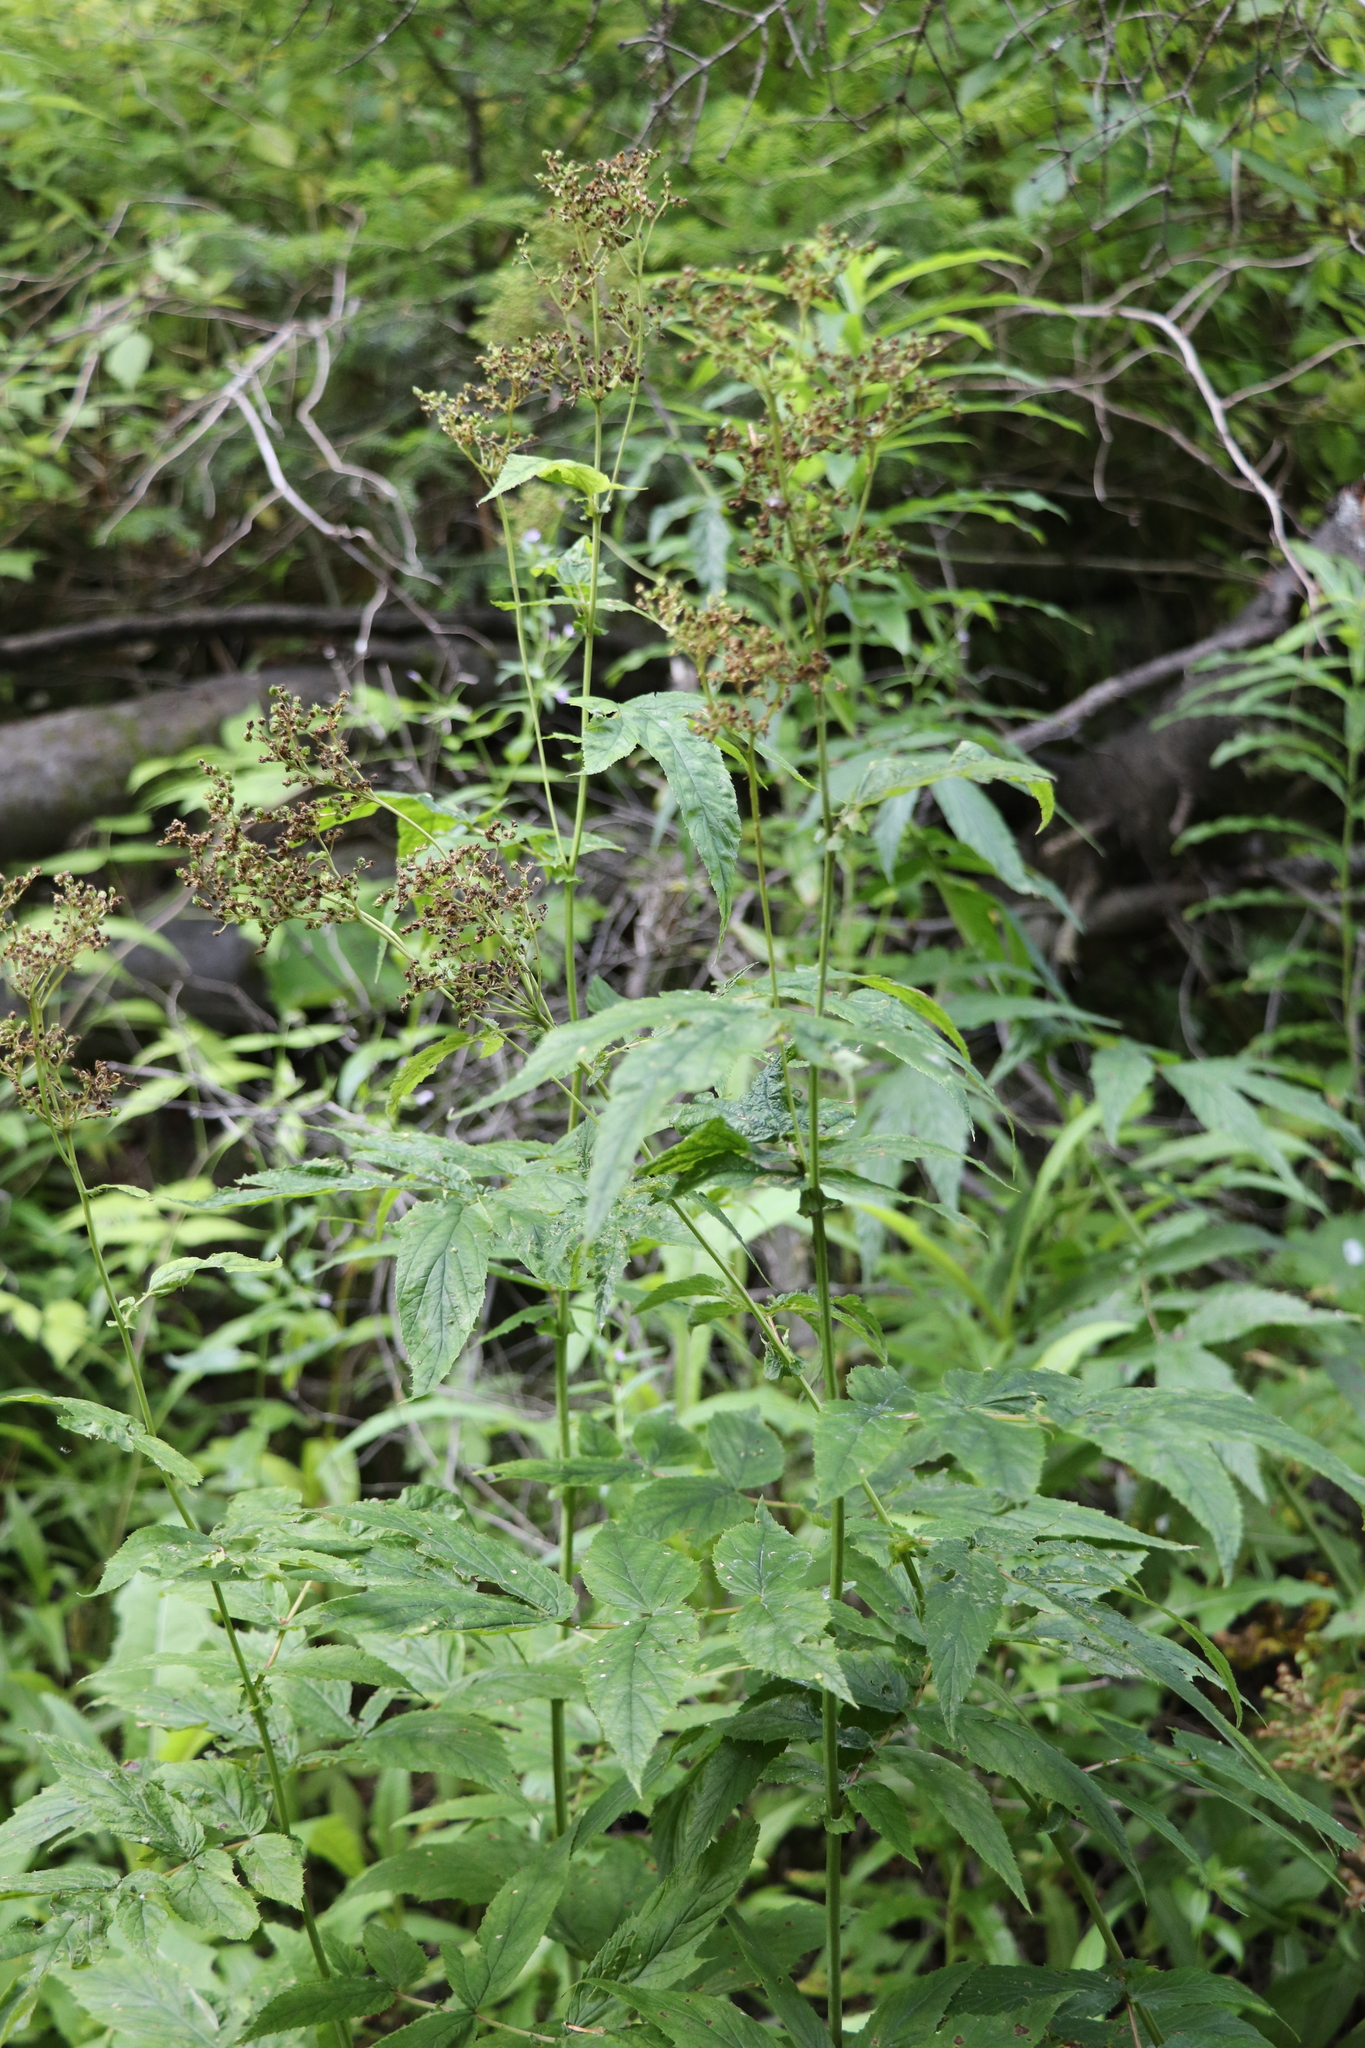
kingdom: Plantae
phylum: Tracheophyta
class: Magnoliopsida
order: Rosales
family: Rosaceae
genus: Filipendula
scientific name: Filipendula ulmaria
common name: Meadowsweet
